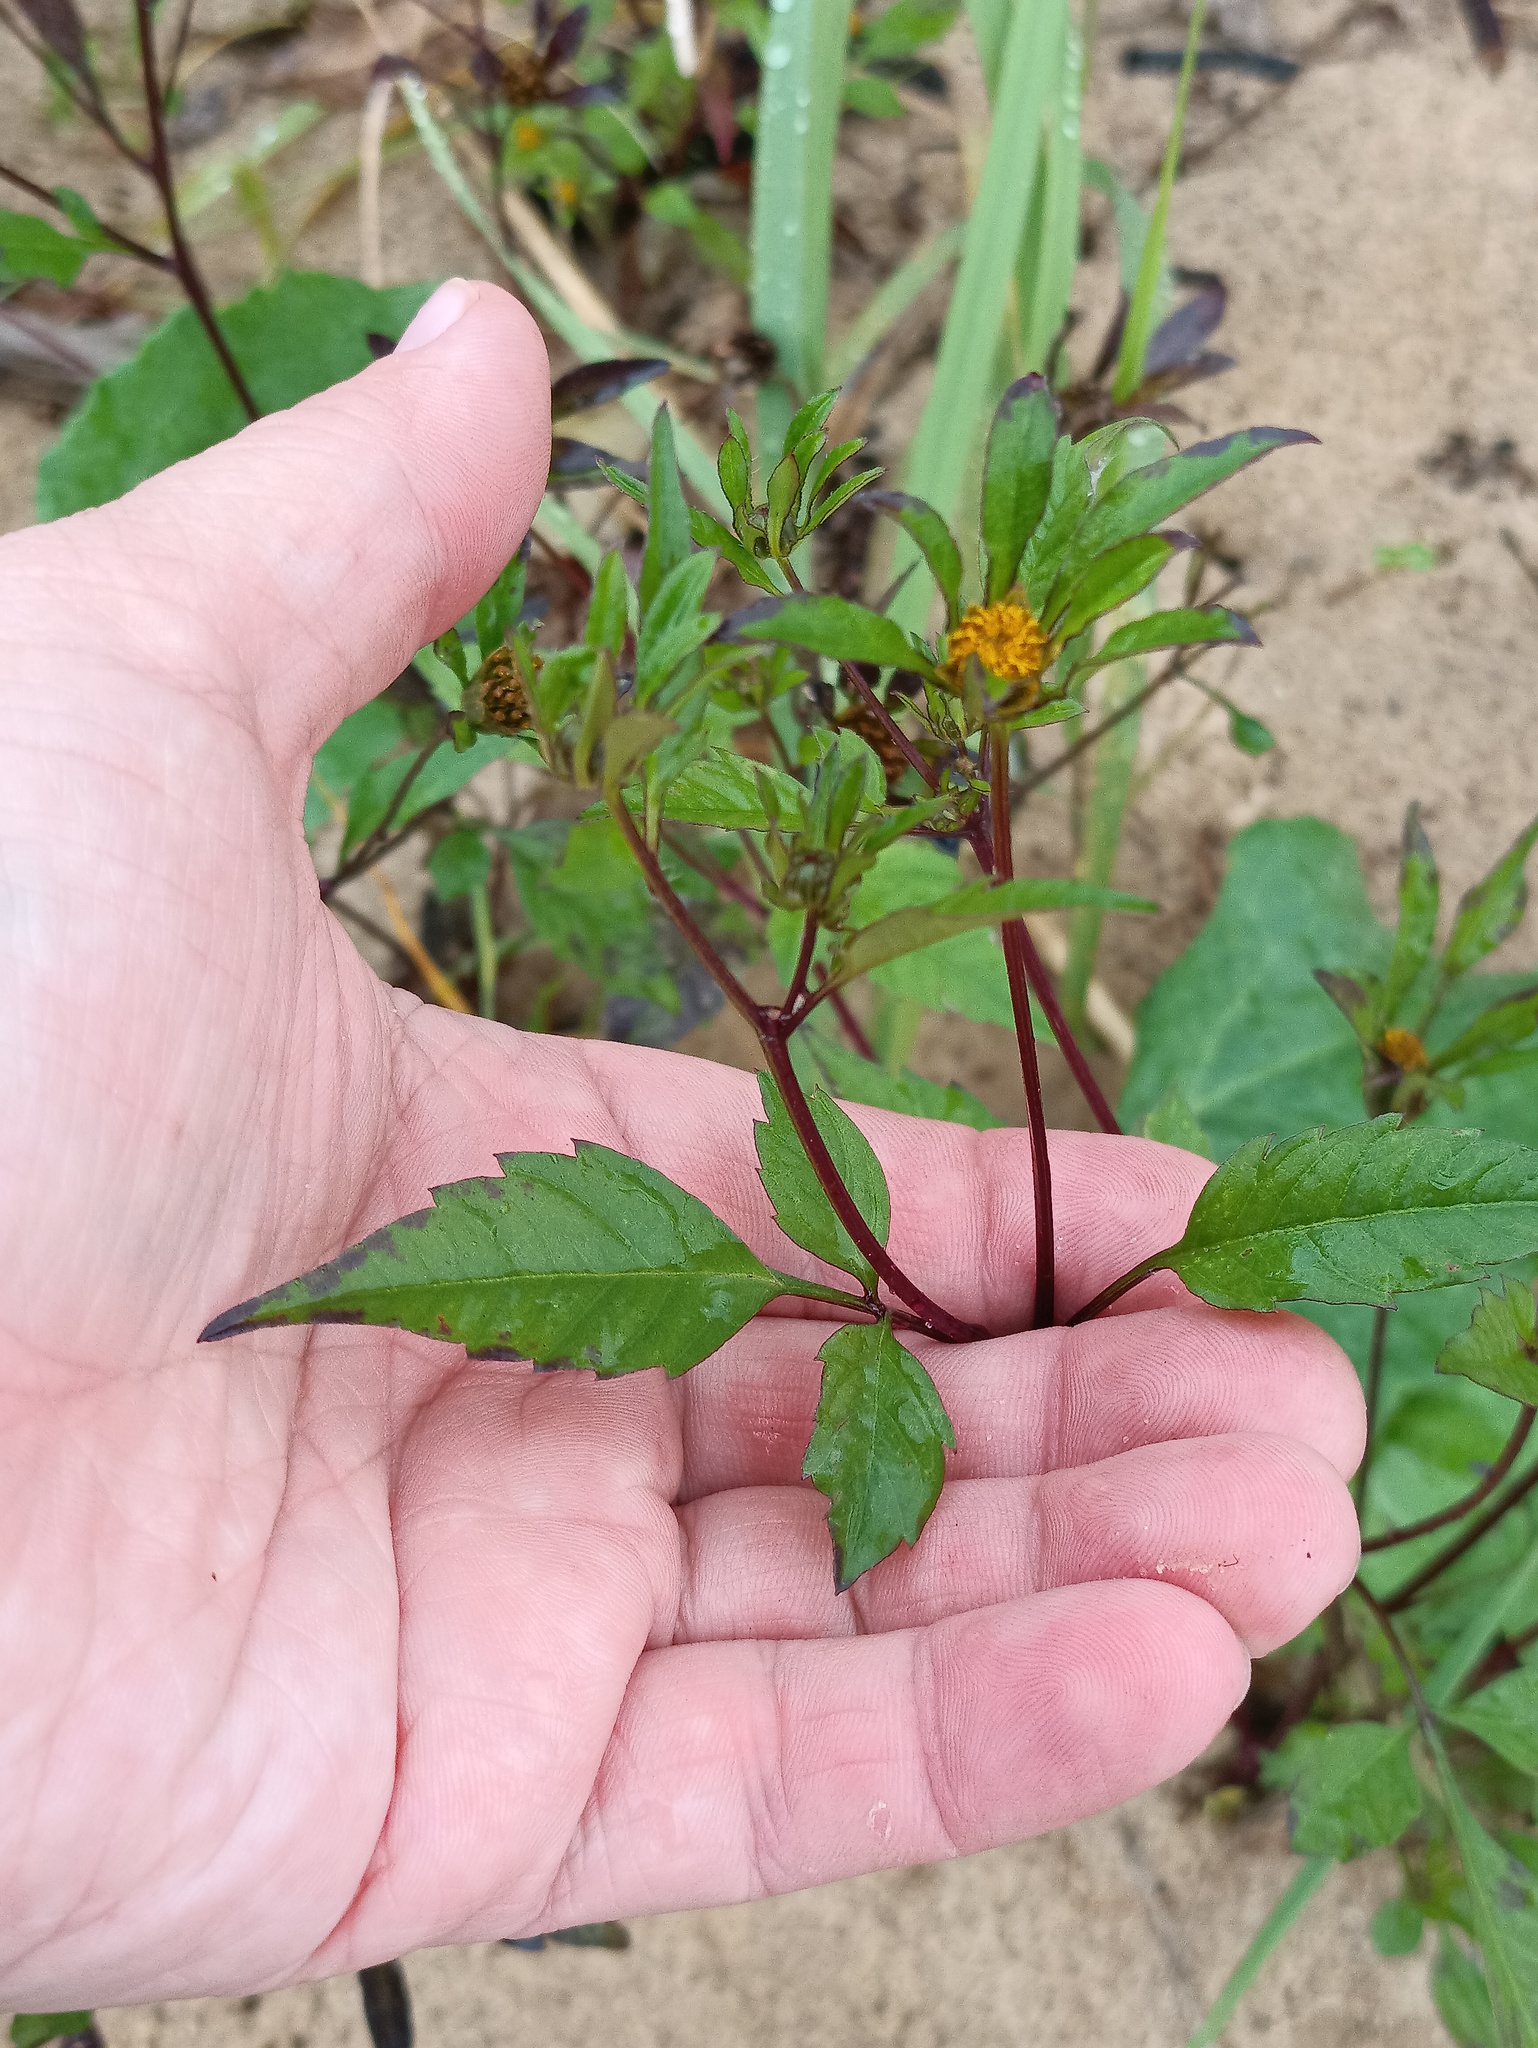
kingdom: Plantae
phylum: Tracheophyta
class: Magnoliopsida
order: Asterales
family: Asteraceae
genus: Bidens
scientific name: Bidens frondosa
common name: Beggarticks
